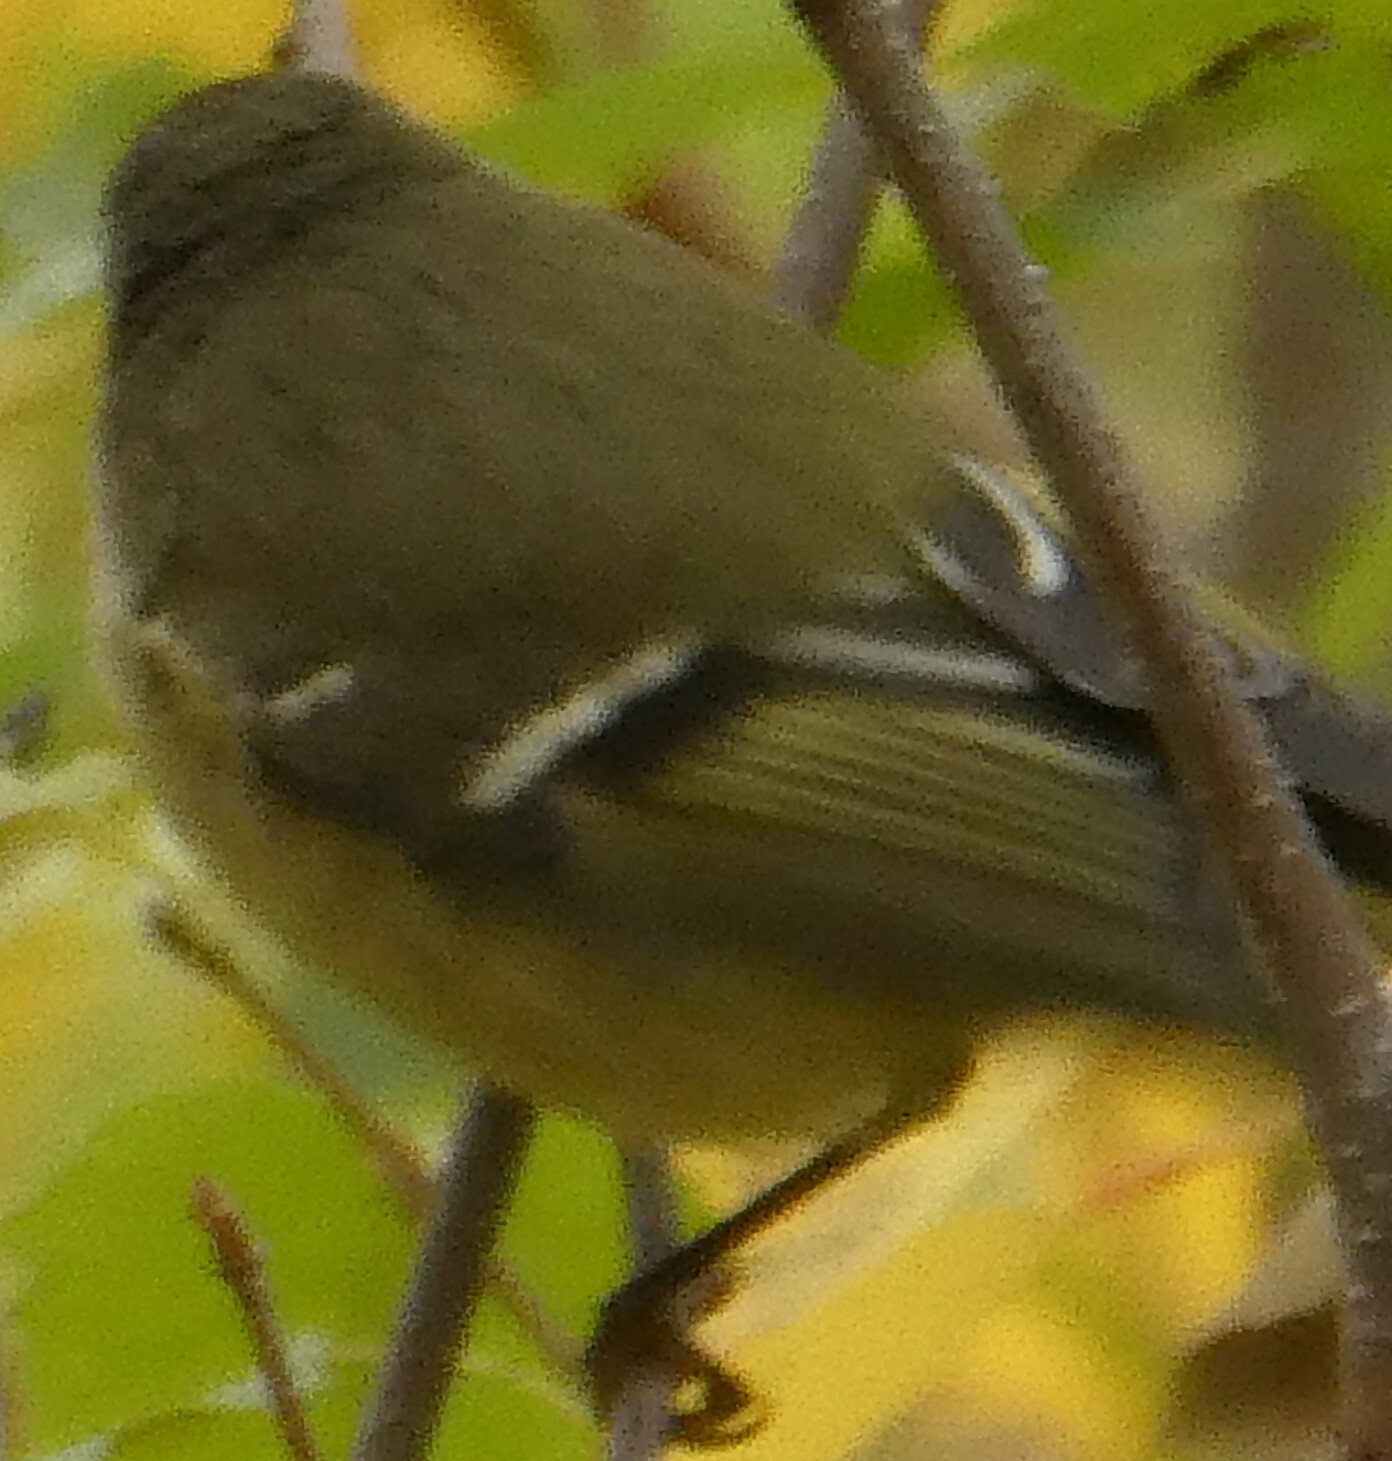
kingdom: Animalia
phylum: Chordata
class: Aves
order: Passeriformes
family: Regulidae
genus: Regulus
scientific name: Regulus calendula
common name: Ruby-crowned kinglet
